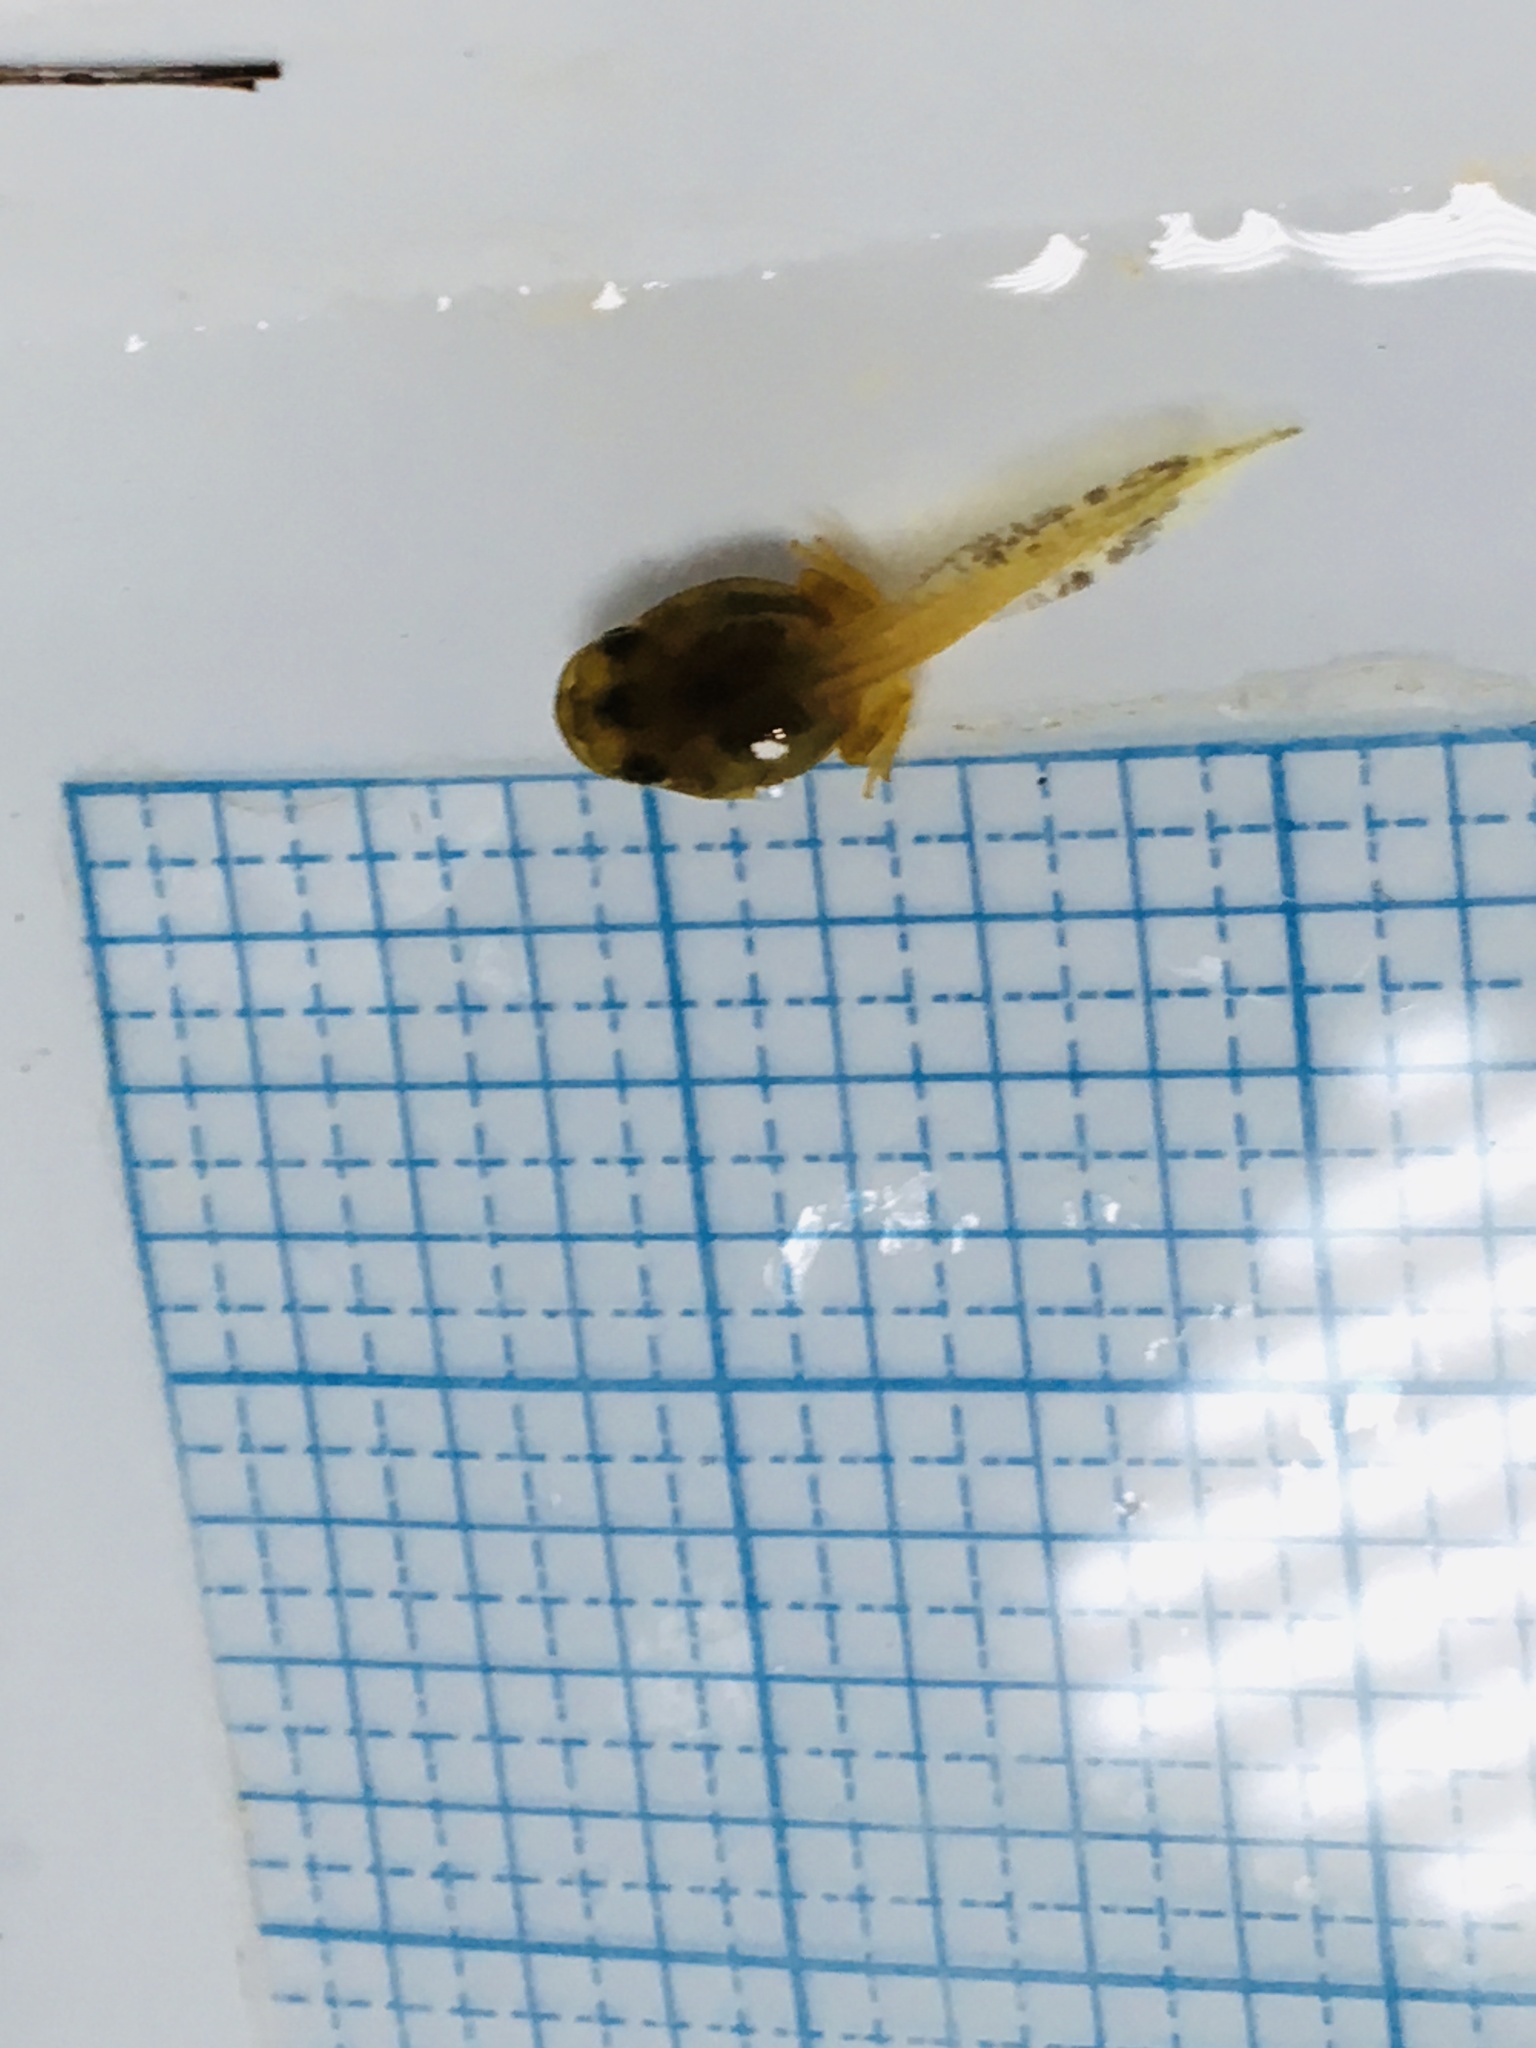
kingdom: Animalia
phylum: Chordata
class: Amphibia
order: Anura
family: Hylidae
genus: Pseudacris
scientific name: Pseudacris crucifer
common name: Spring peeper
